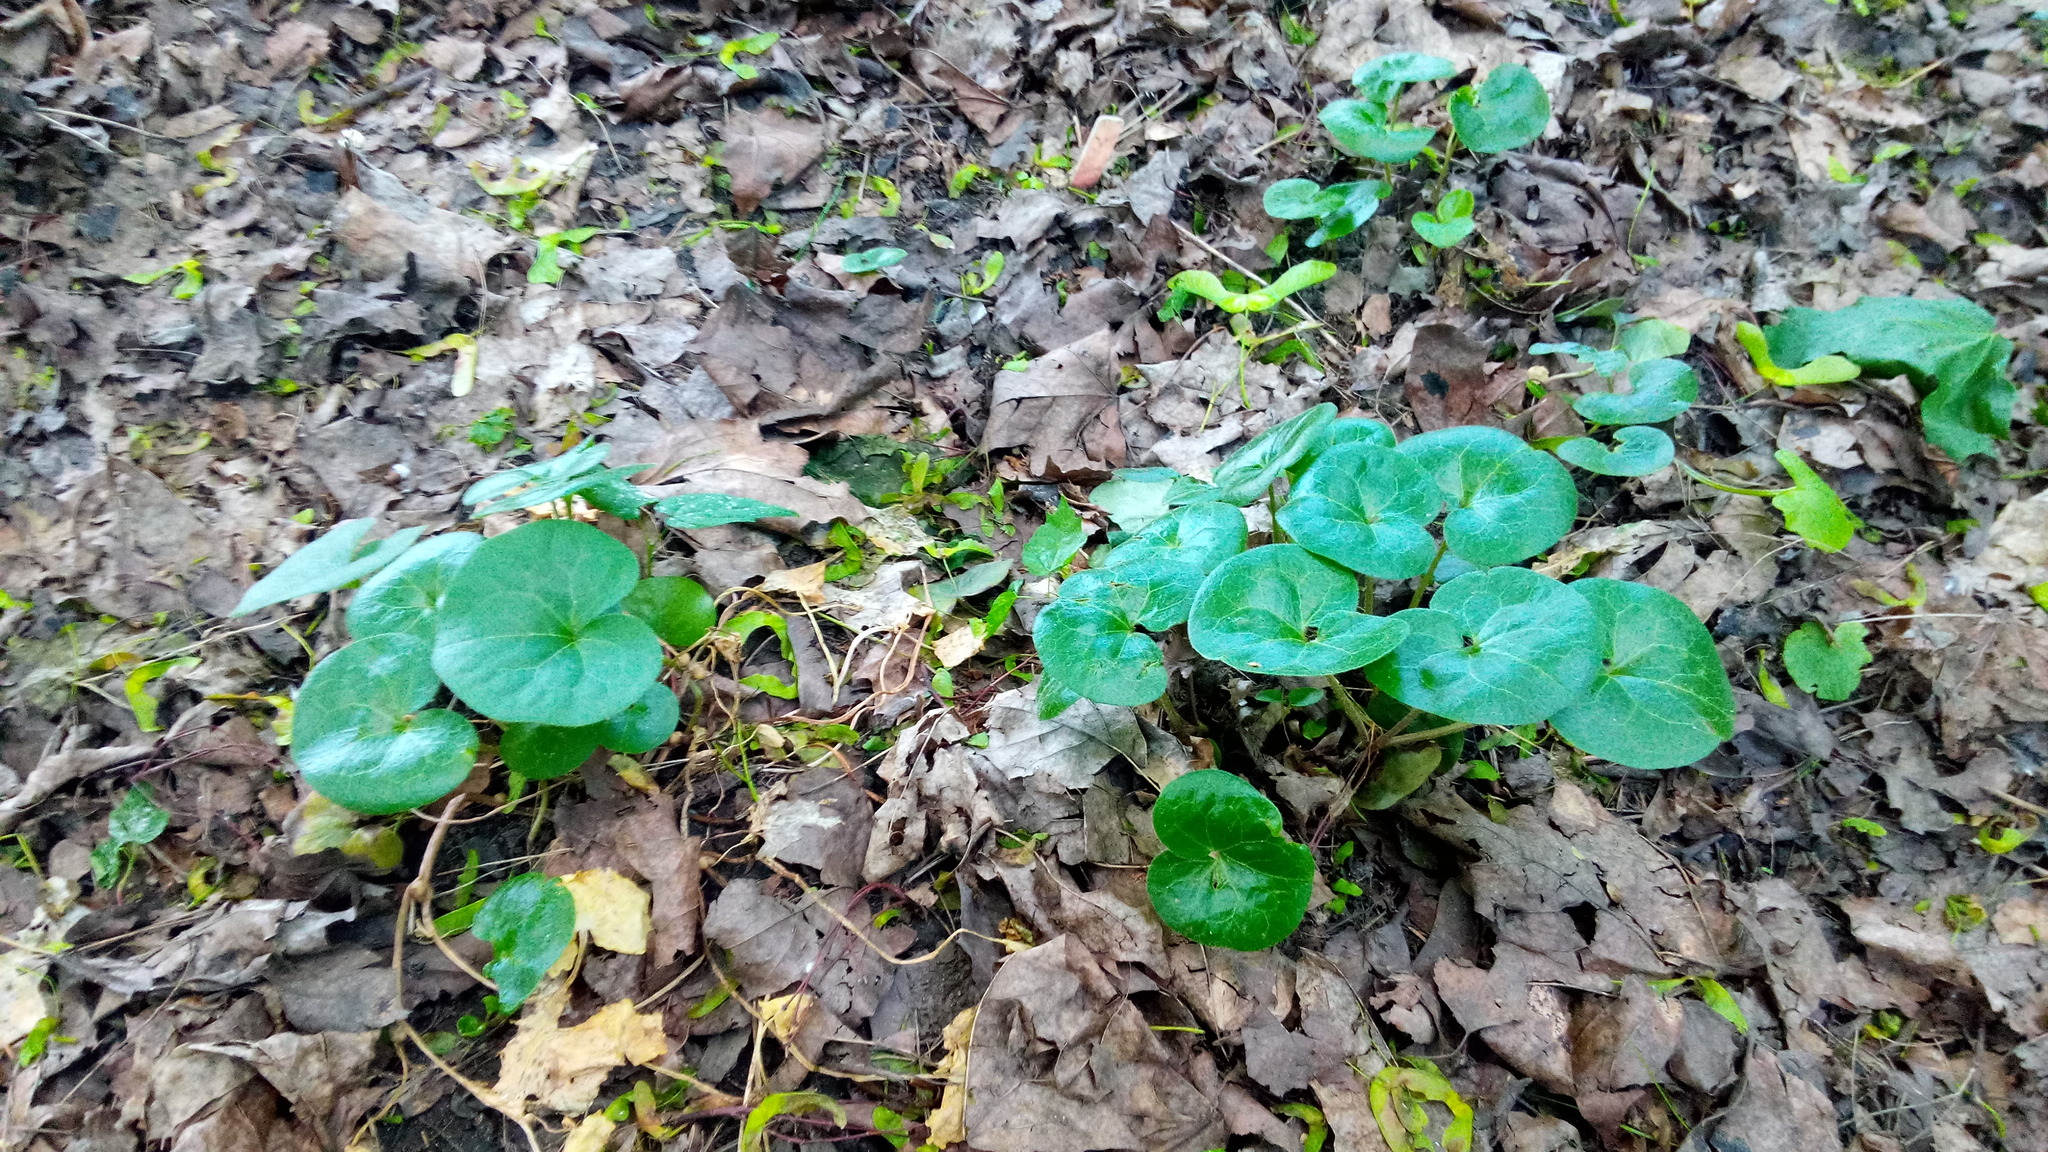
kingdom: Plantae
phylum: Tracheophyta
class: Magnoliopsida
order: Piperales
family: Aristolochiaceae
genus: Asarum
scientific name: Asarum europaeum
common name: Asarabacca
